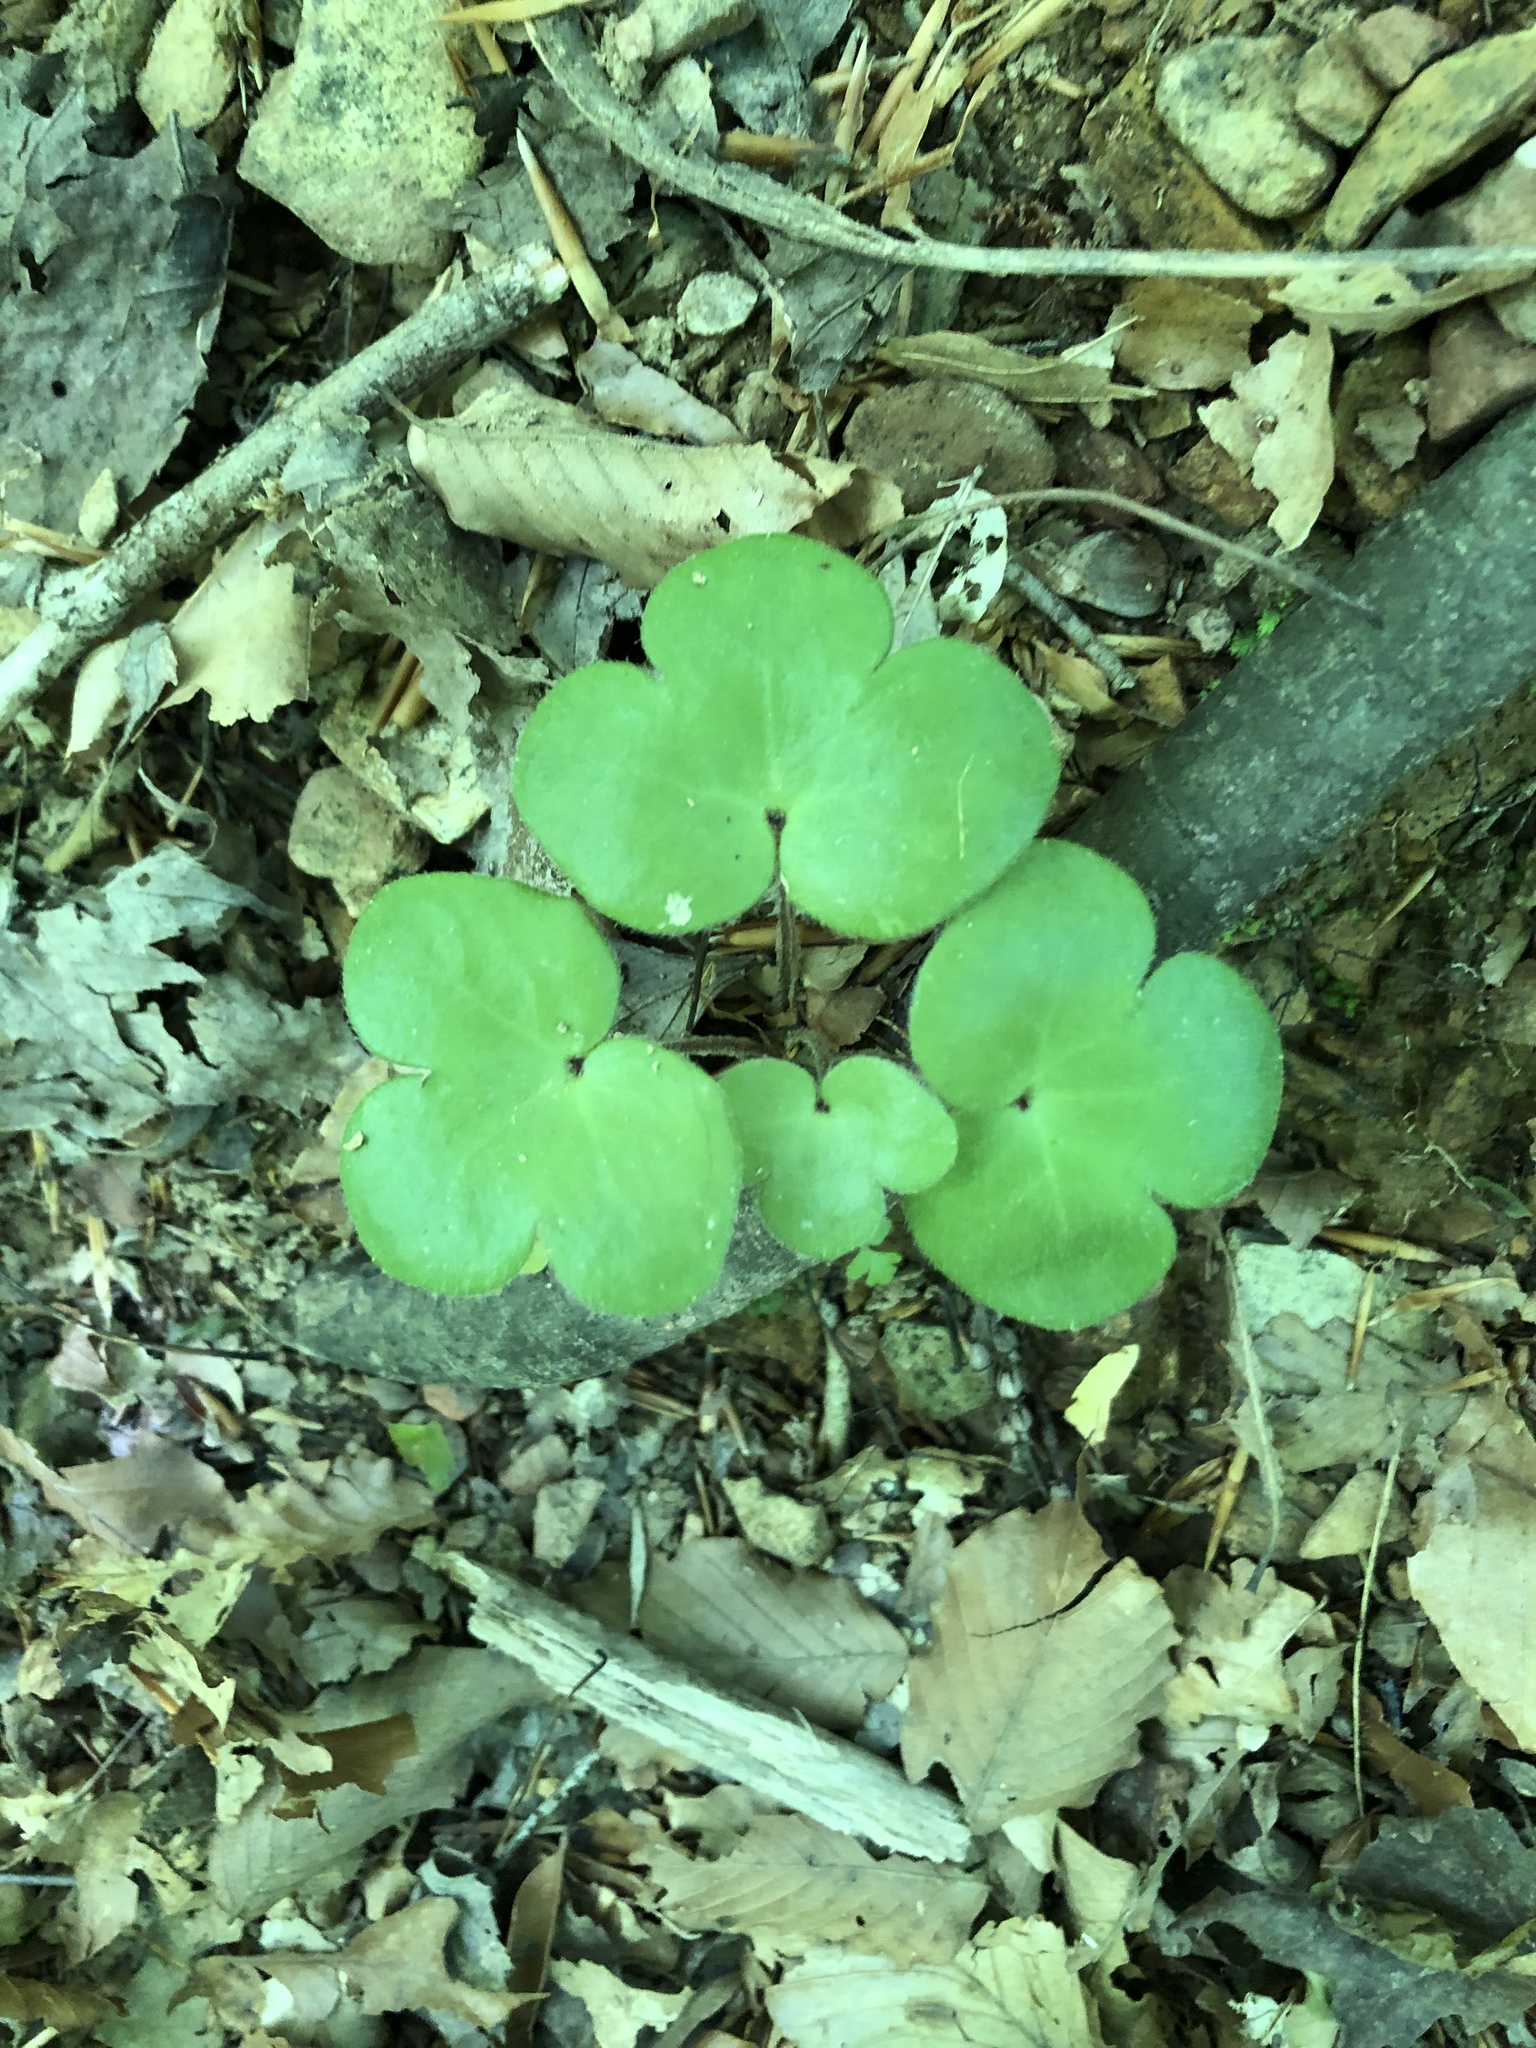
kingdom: Plantae
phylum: Tracheophyta
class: Magnoliopsida
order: Ranunculales
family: Ranunculaceae
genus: Hepatica
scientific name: Hepatica americana
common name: American hepatica
